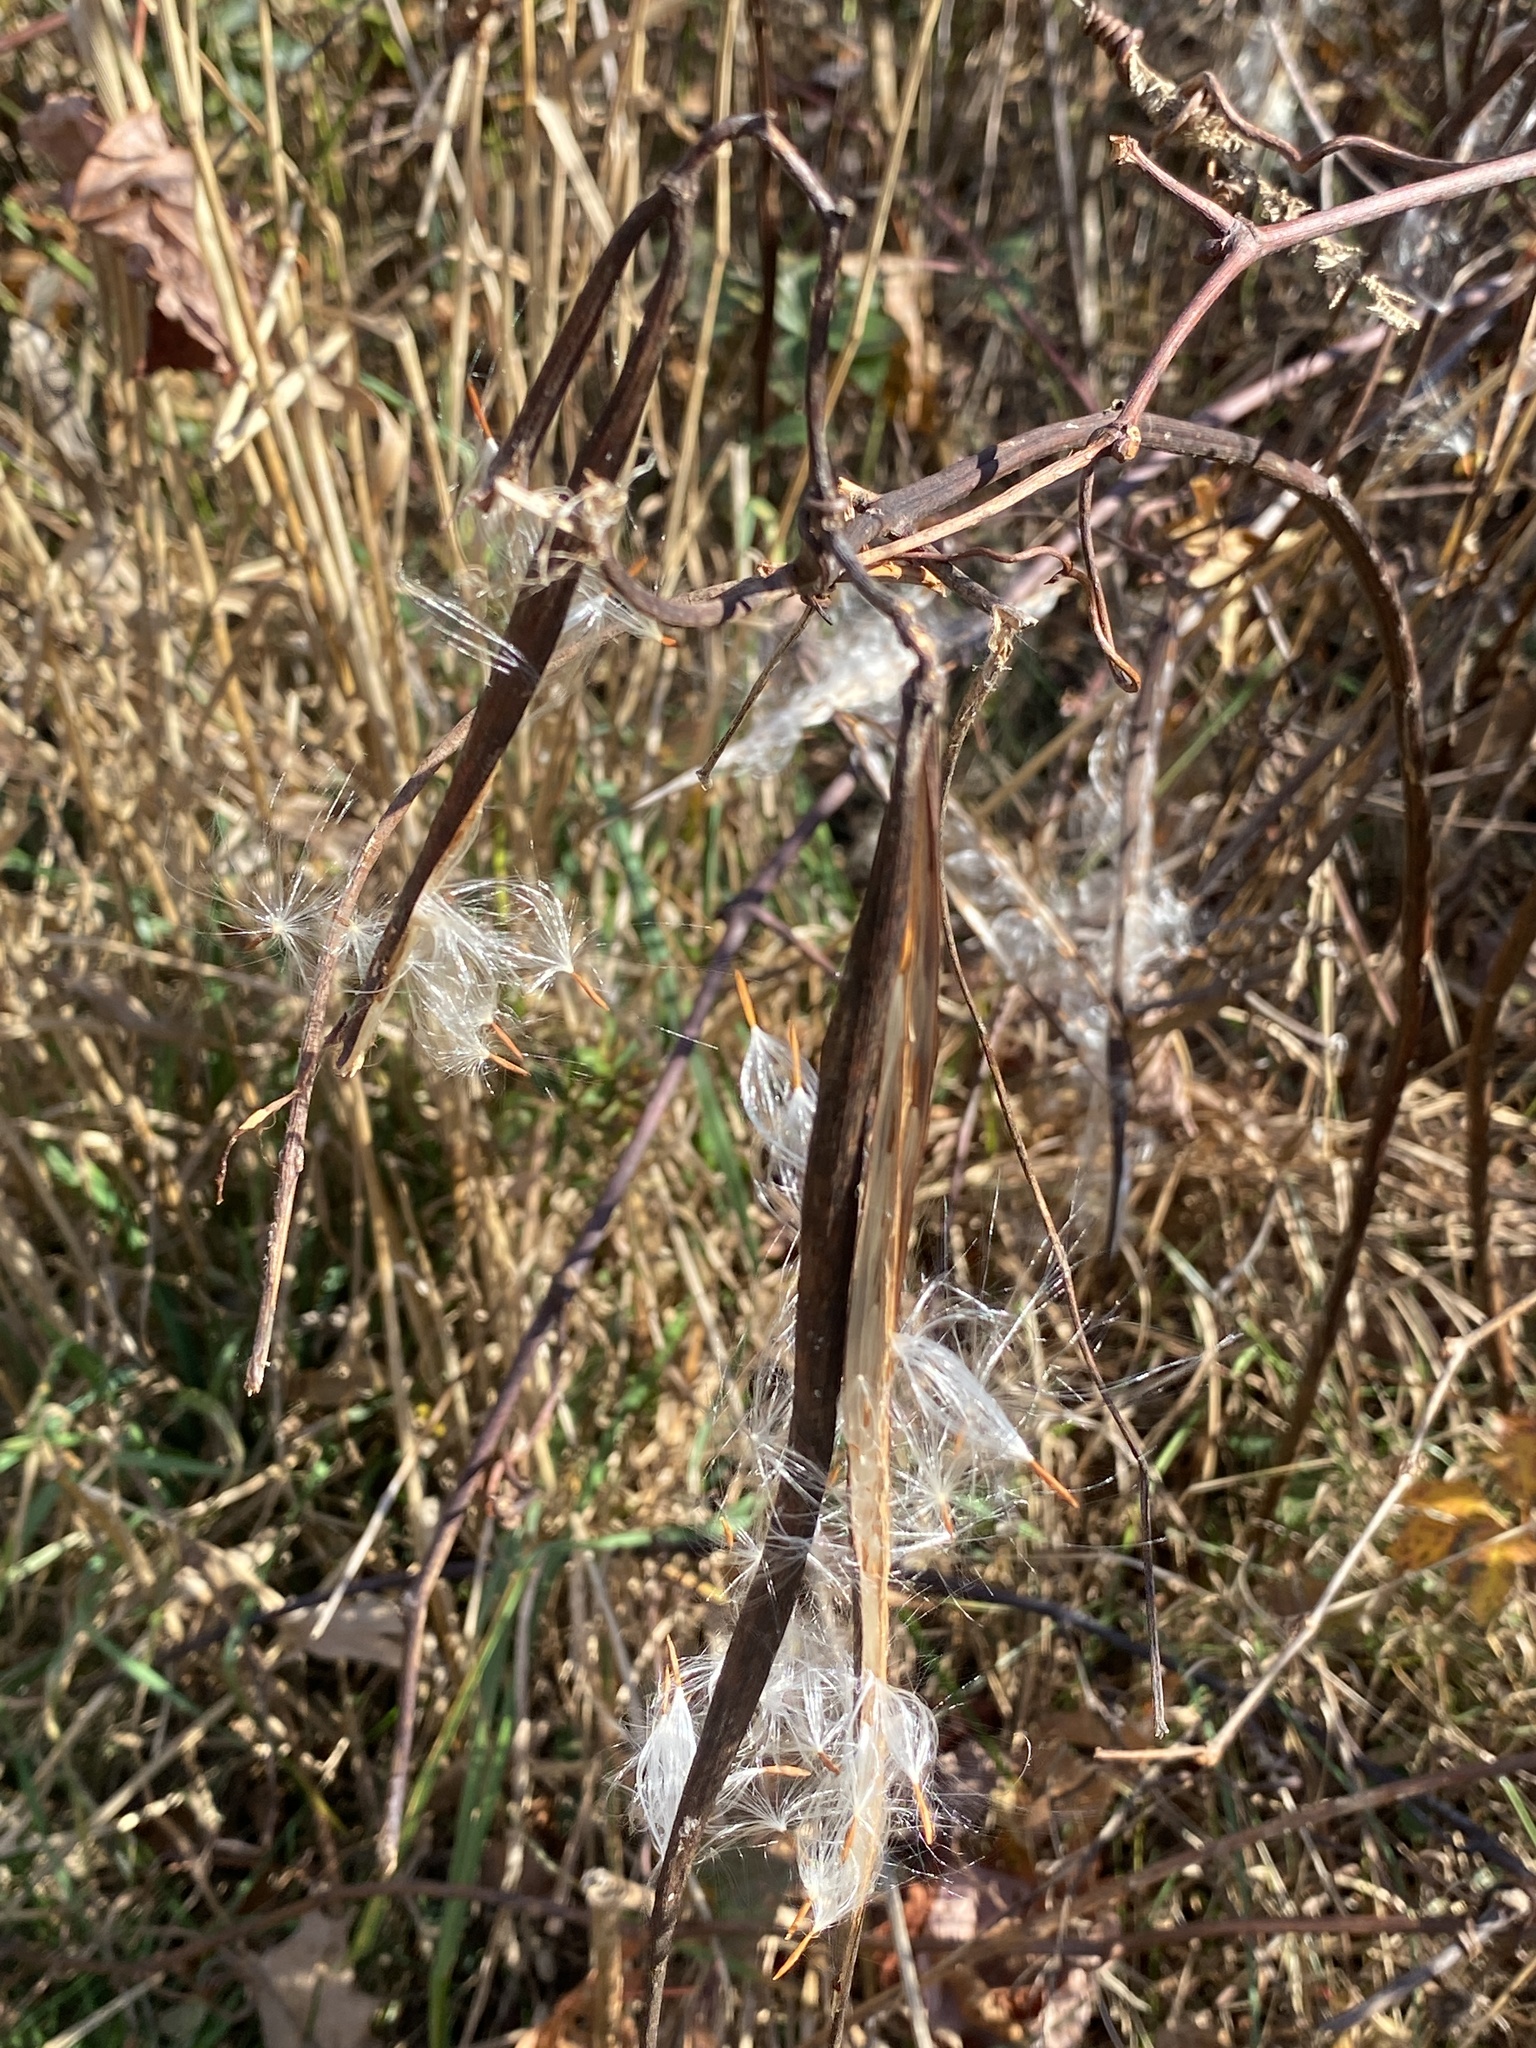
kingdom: Plantae
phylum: Tracheophyta
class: Magnoliopsida
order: Gentianales
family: Apocynaceae
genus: Apocynum
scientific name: Apocynum cannabinum
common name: Hemp dogbane
